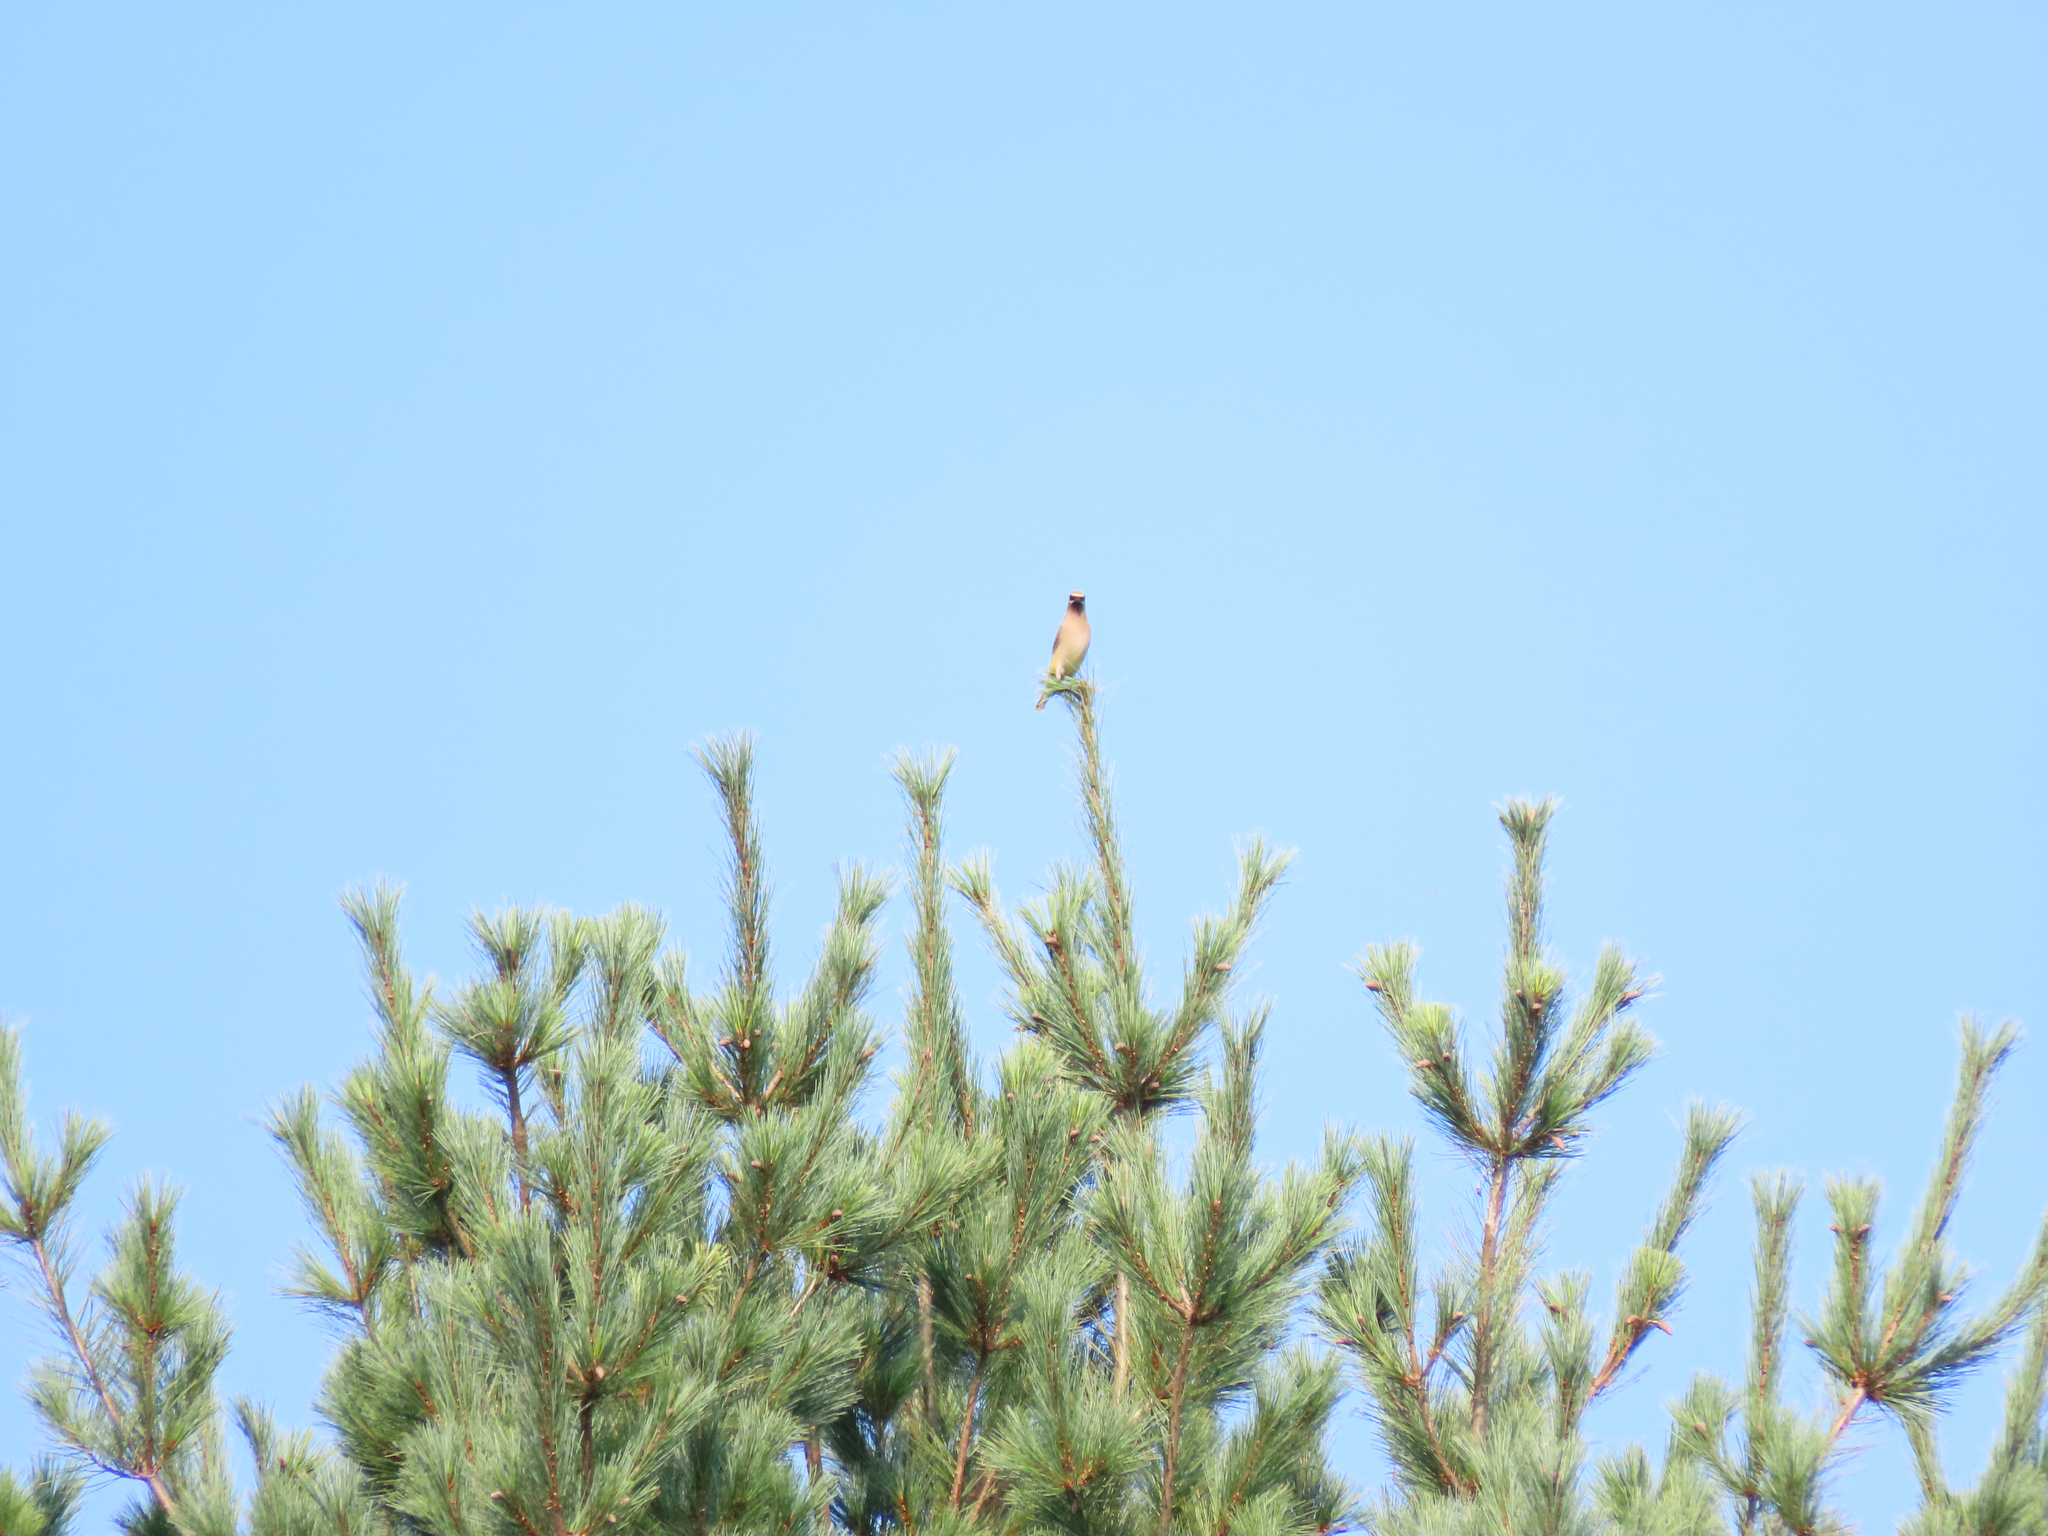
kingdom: Animalia
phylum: Chordata
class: Aves
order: Passeriformes
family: Bombycillidae
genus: Bombycilla
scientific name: Bombycilla cedrorum
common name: Cedar waxwing
